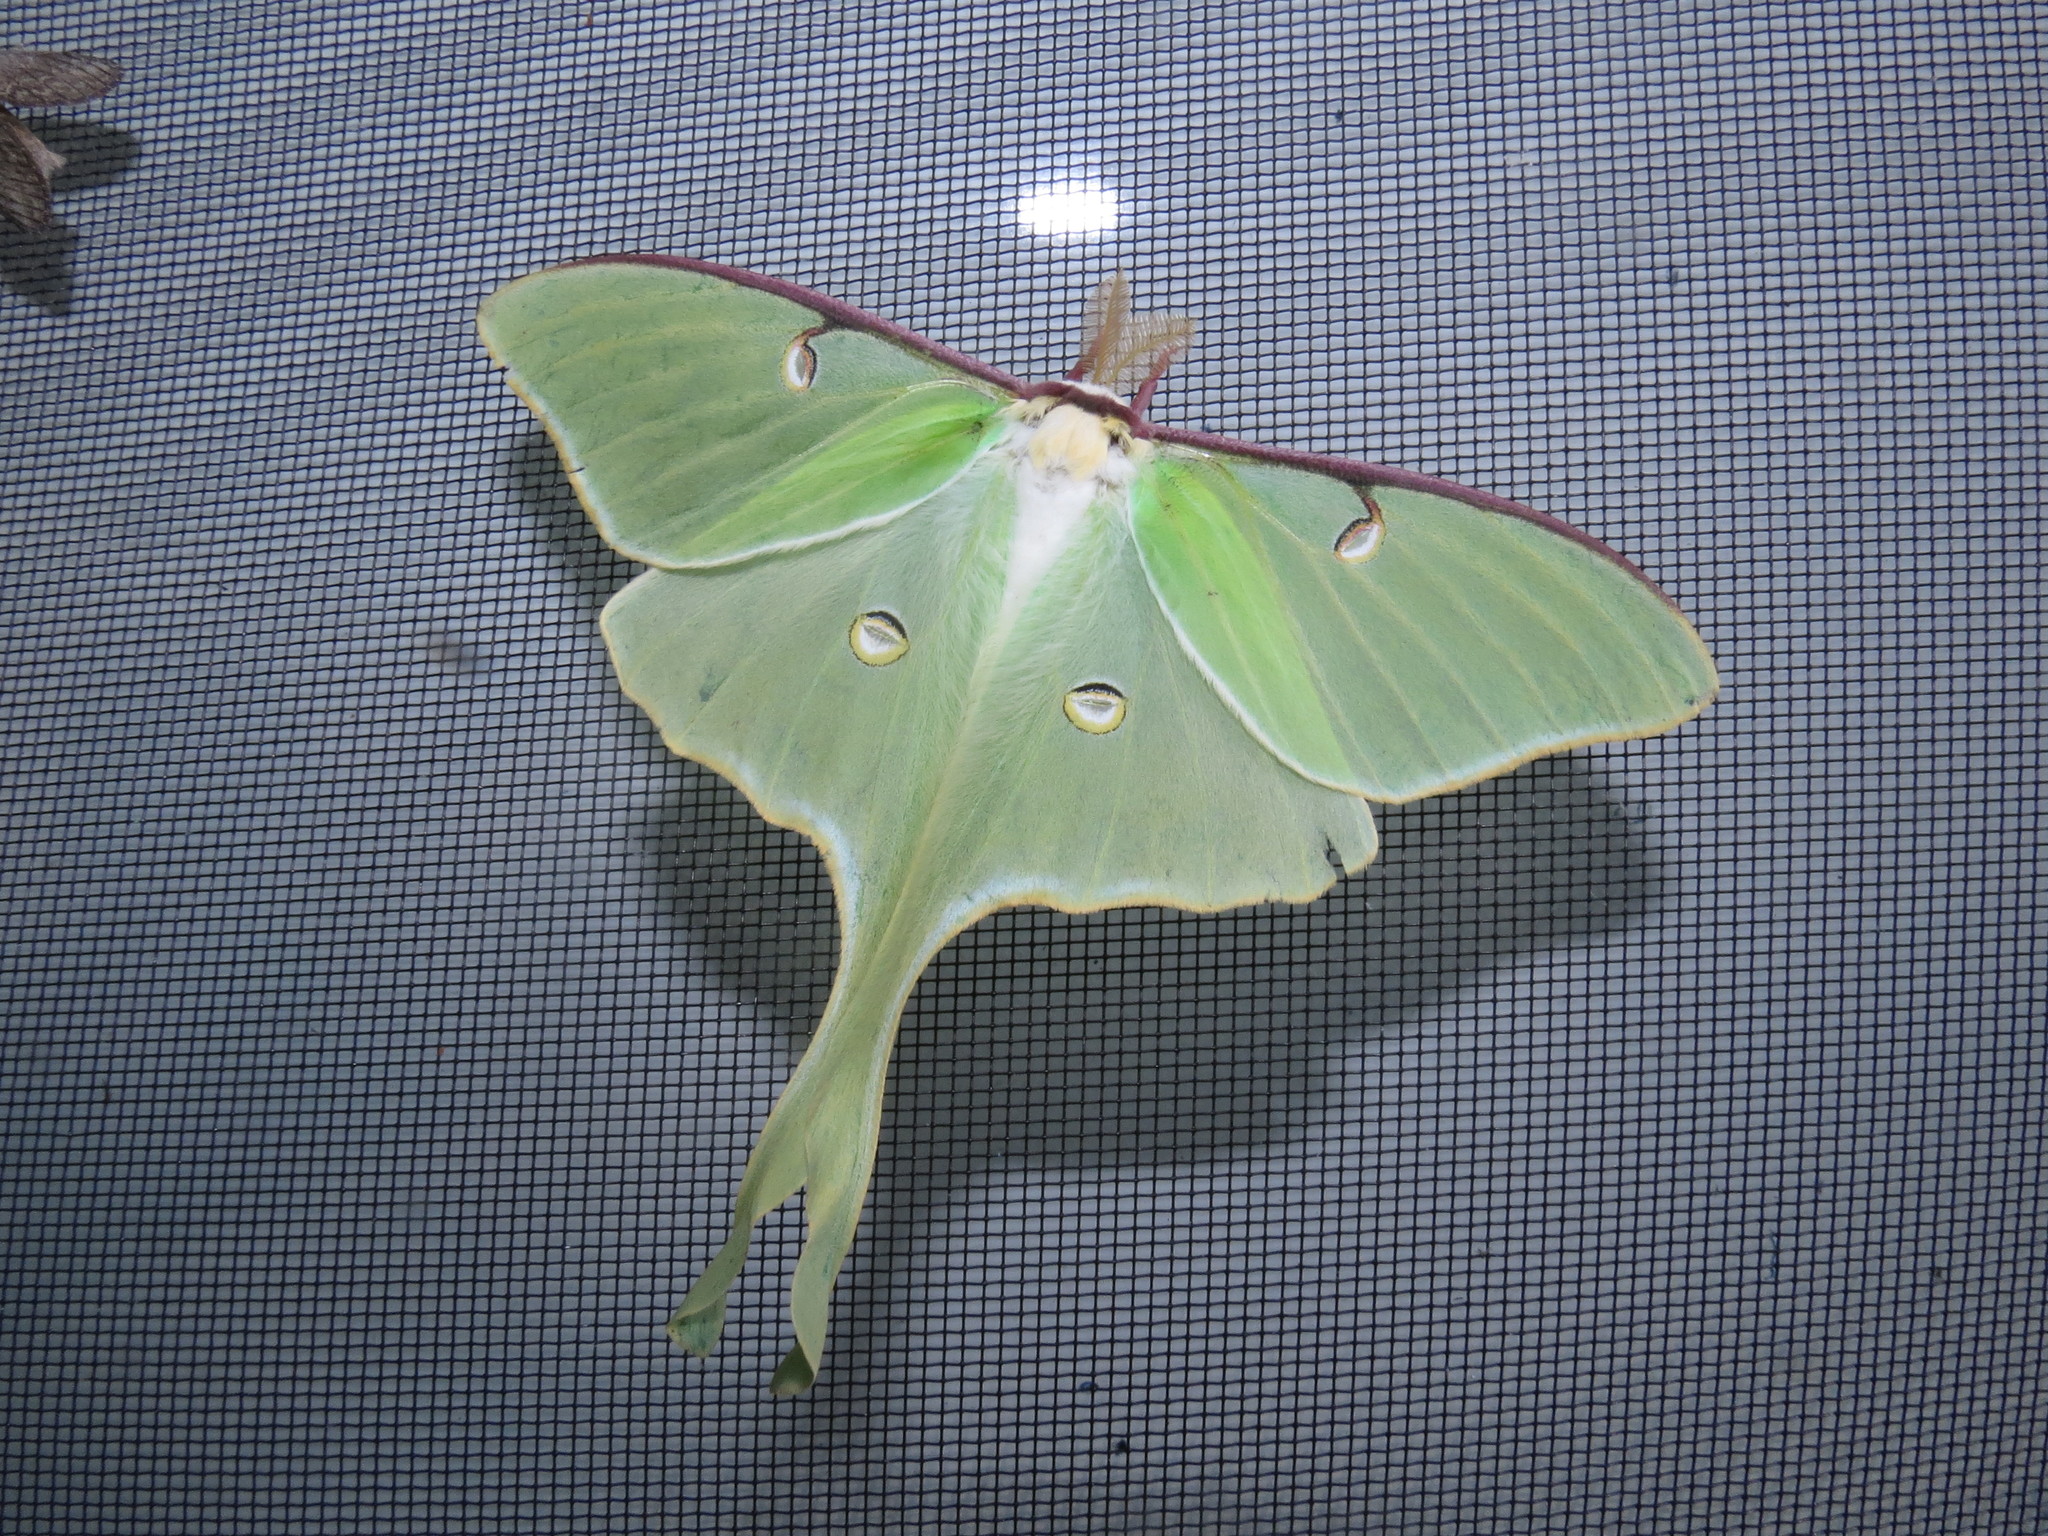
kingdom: Animalia
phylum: Arthropoda
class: Insecta
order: Lepidoptera
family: Saturniidae
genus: Actias
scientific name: Actias luna
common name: Luna moth
